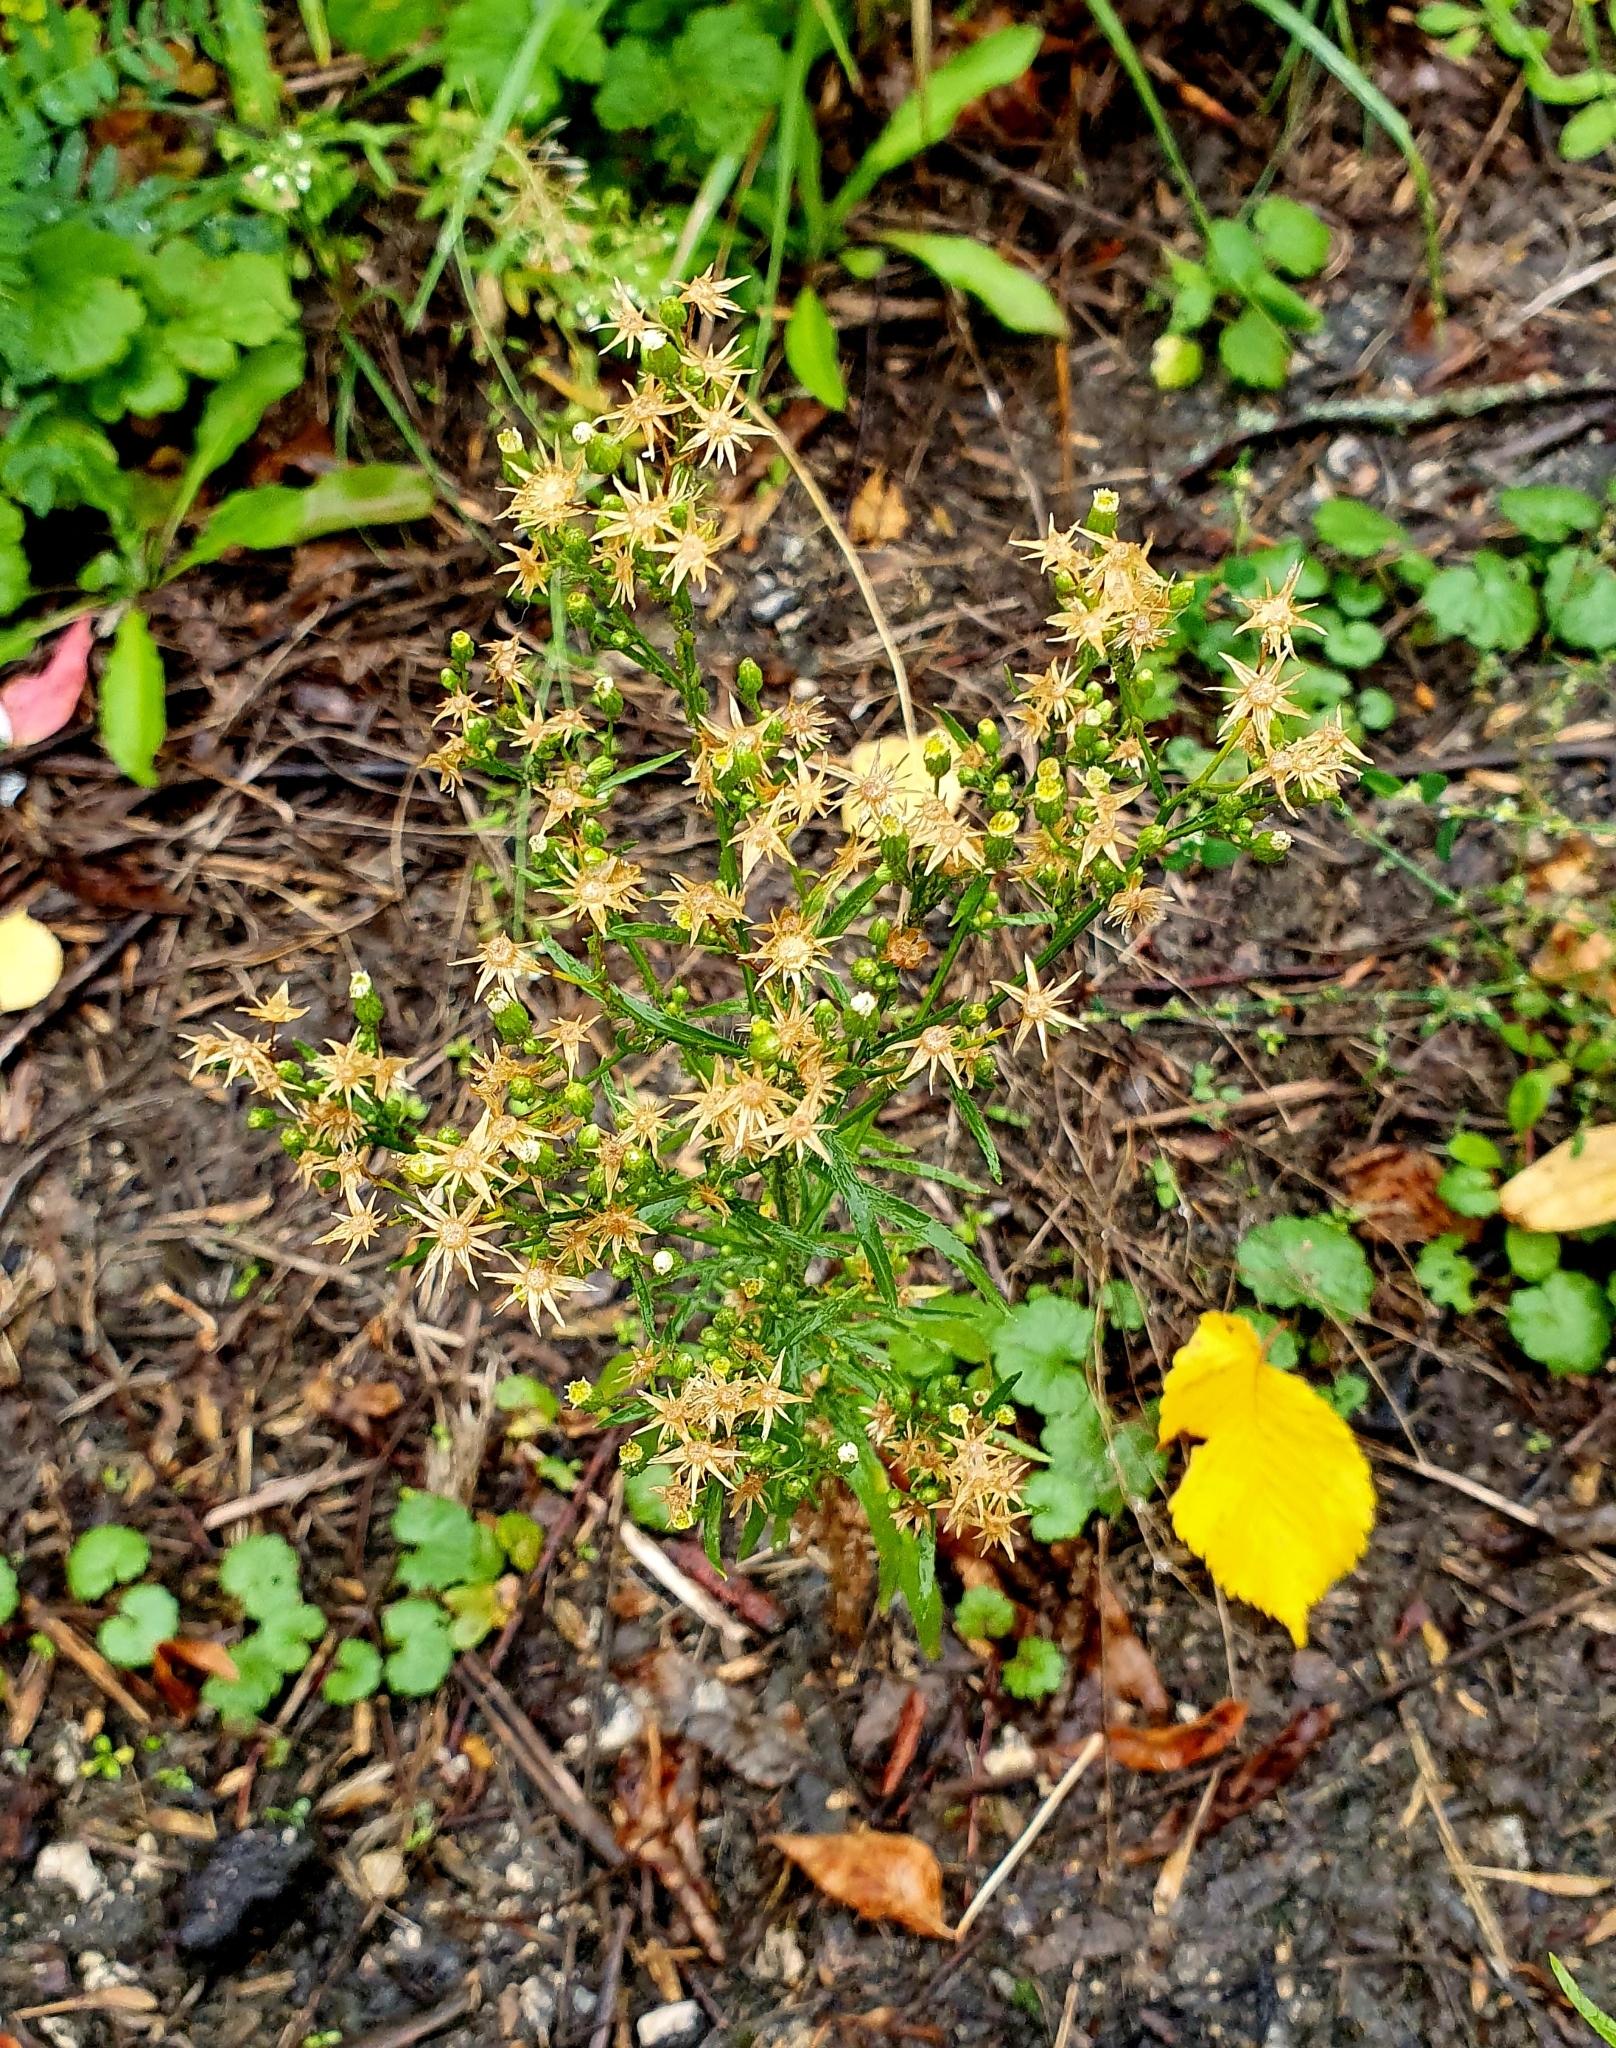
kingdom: Plantae
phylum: Tracheophyta
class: Magnoliopsida
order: Asterales
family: Asteraceae
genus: Erigeron
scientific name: Erigeron canadensis
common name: Canadian fleabane
